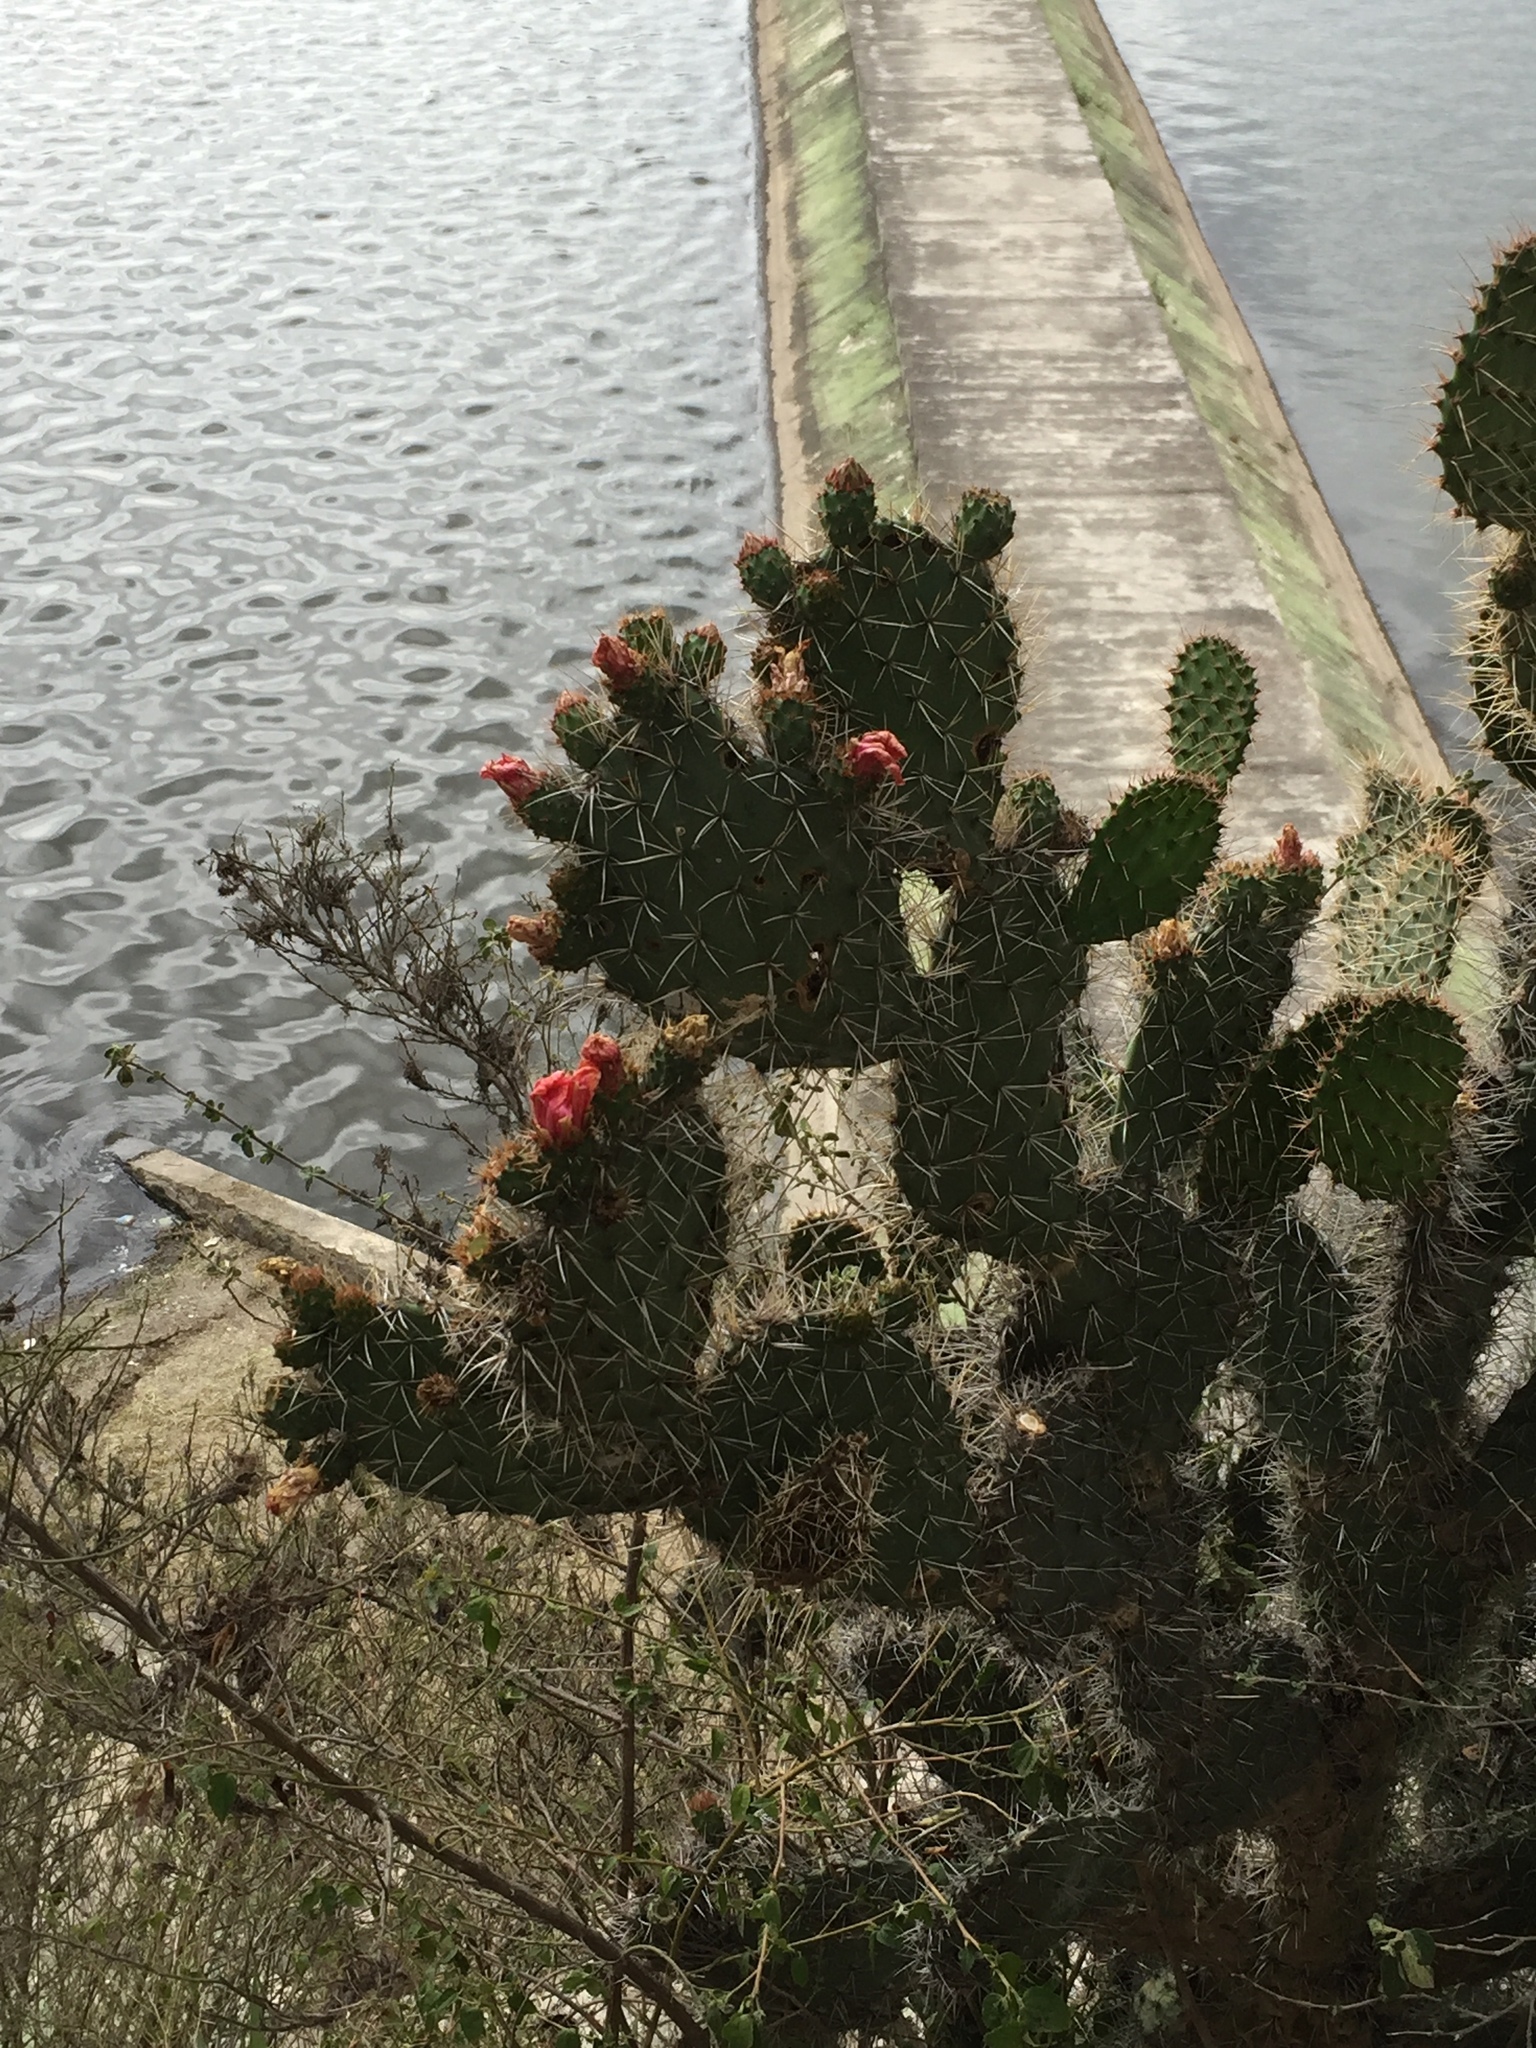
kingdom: Plantae
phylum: Tracheophyta
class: Magnoliopsida
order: Caryophyllales
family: Cactaceae
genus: Opuntia
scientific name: Opuntia soederstromiana
